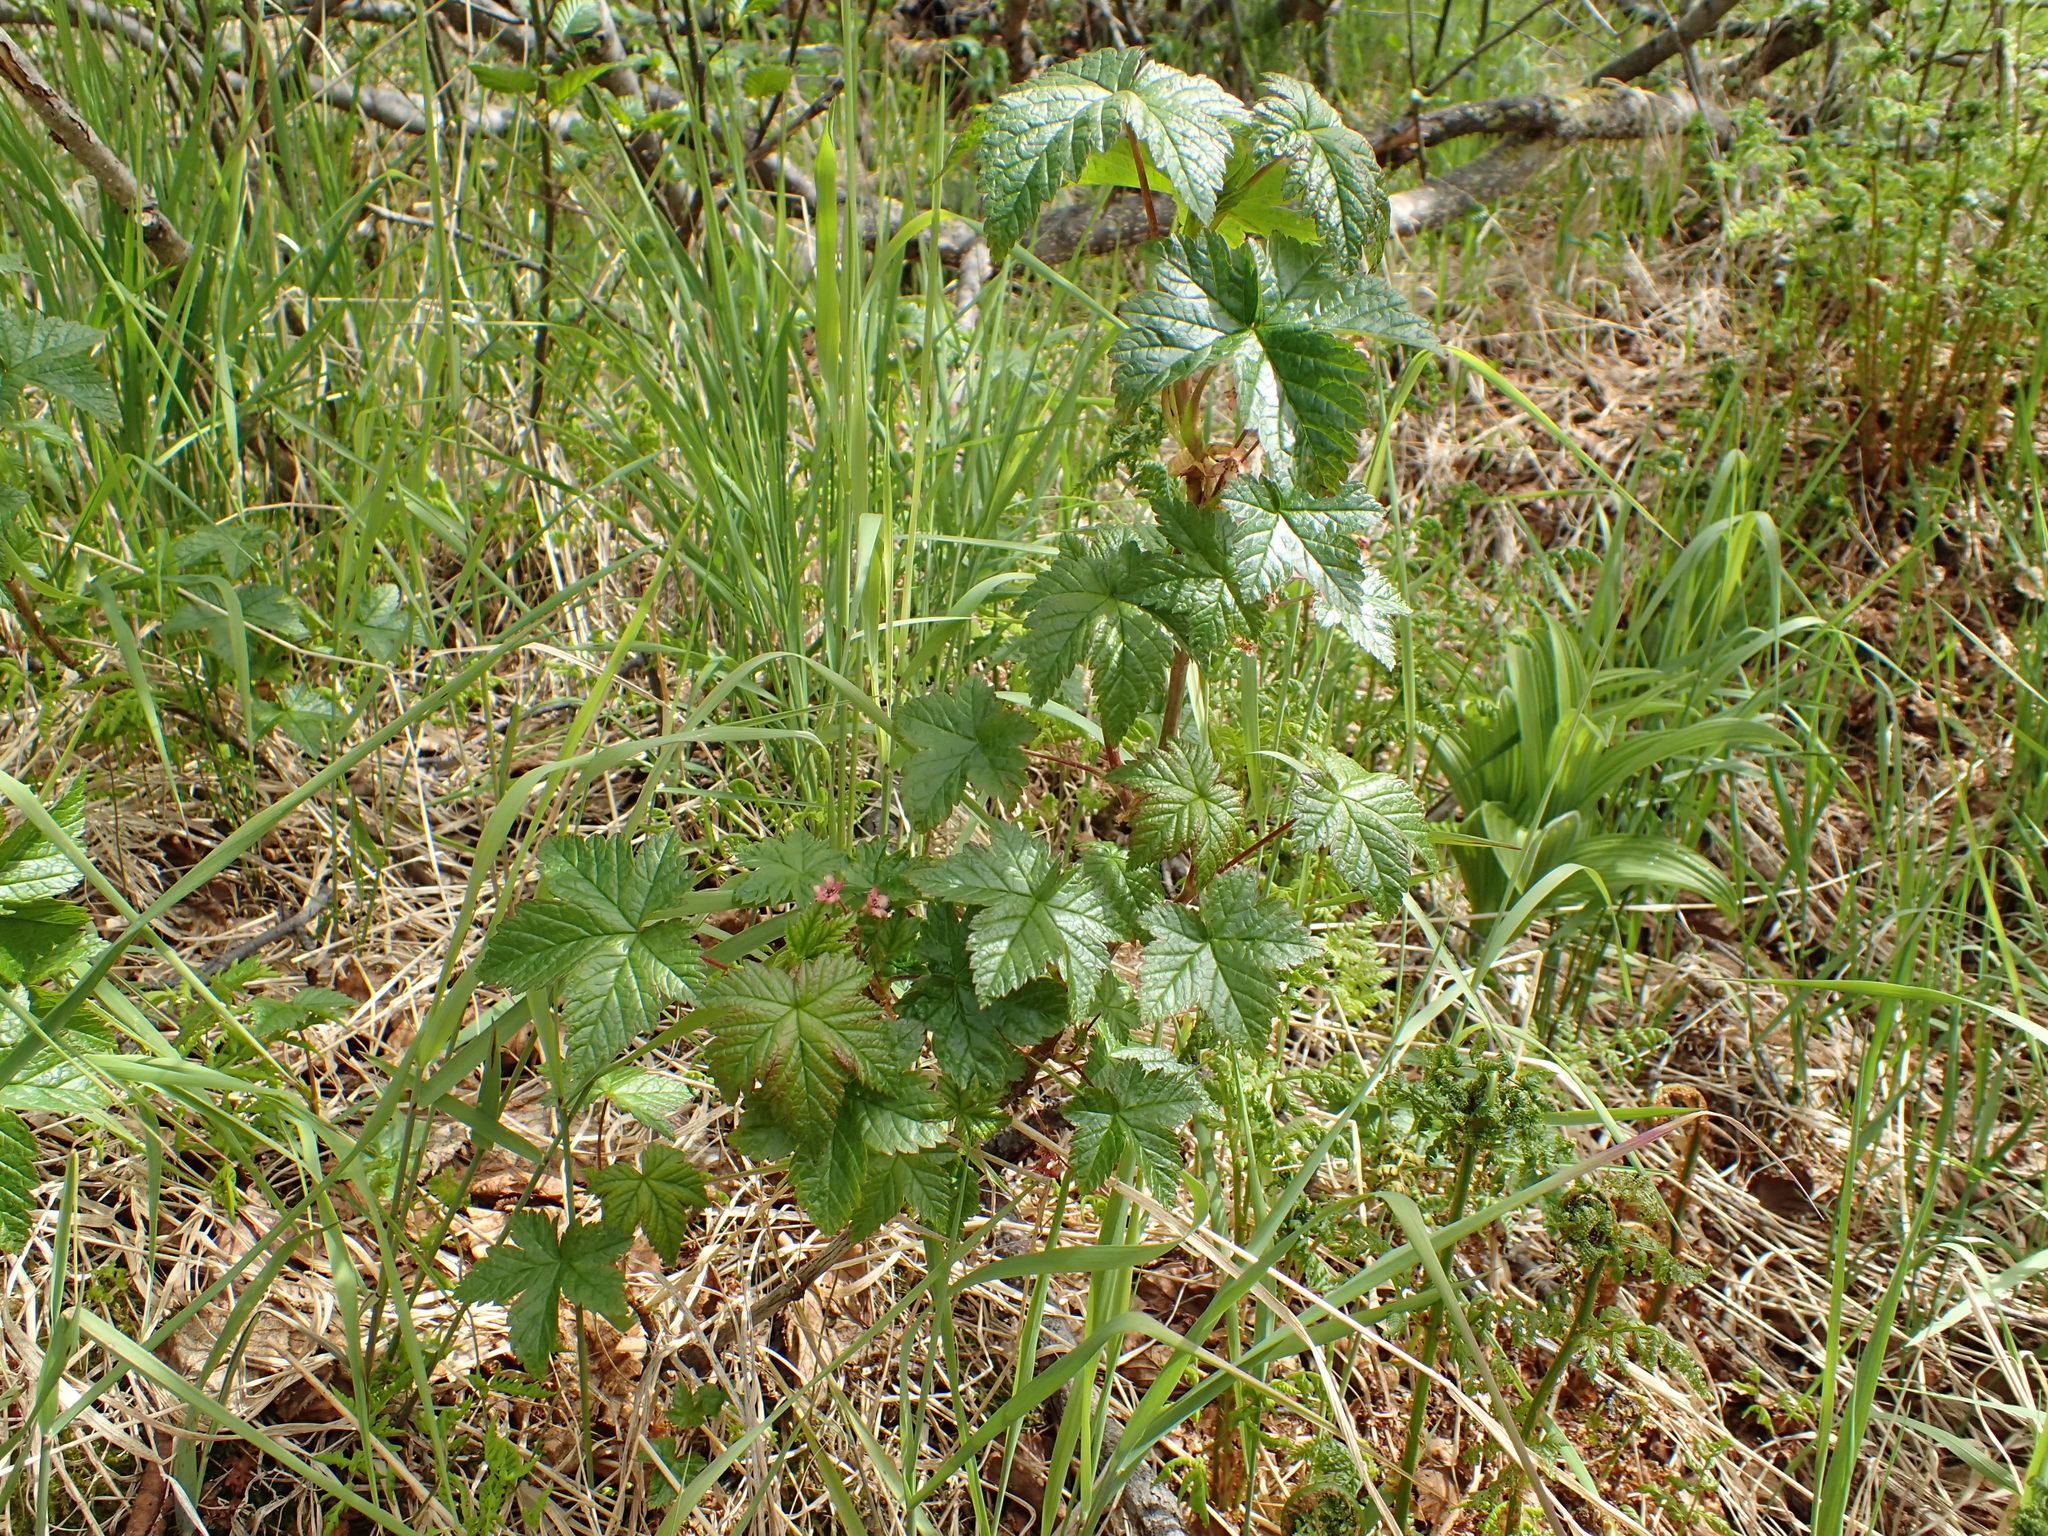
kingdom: Plantae
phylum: Tracheophyta
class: Magnoliopsida
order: Saxifragales
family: Grossulariaceae
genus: Ribes
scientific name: Ribes laxiflorum
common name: Spreading currant
